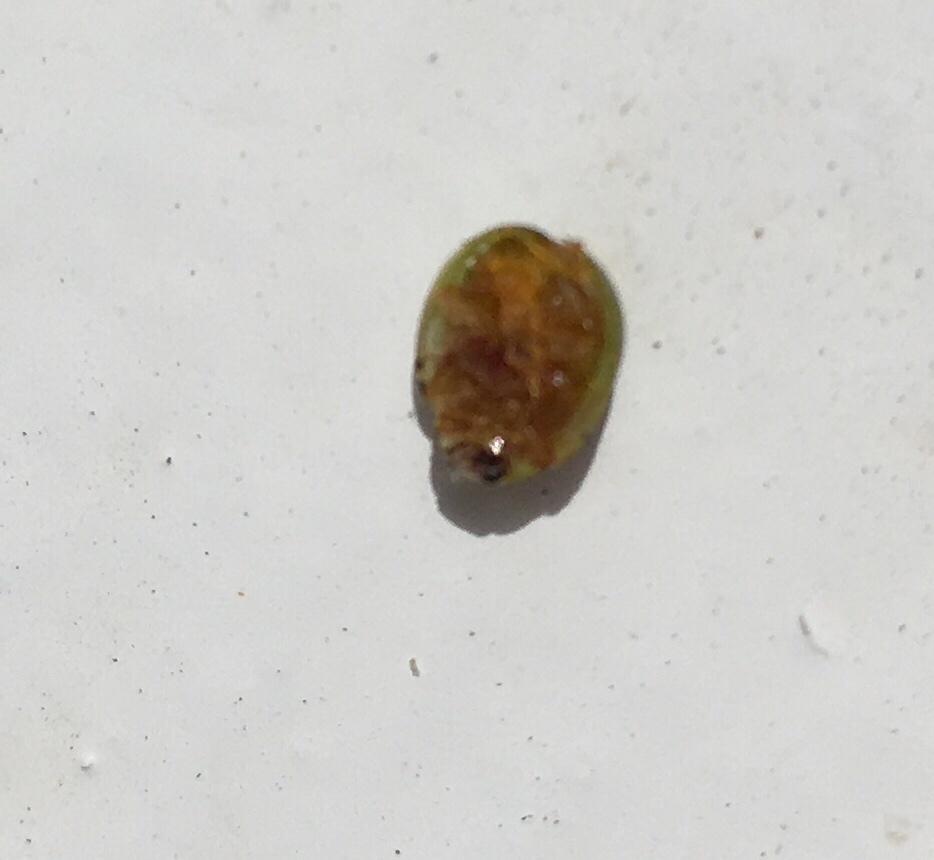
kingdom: Animalia
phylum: Arthropoda
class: Insecta
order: Coleoptera
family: Coccinellidae
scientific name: Coccinellidae
